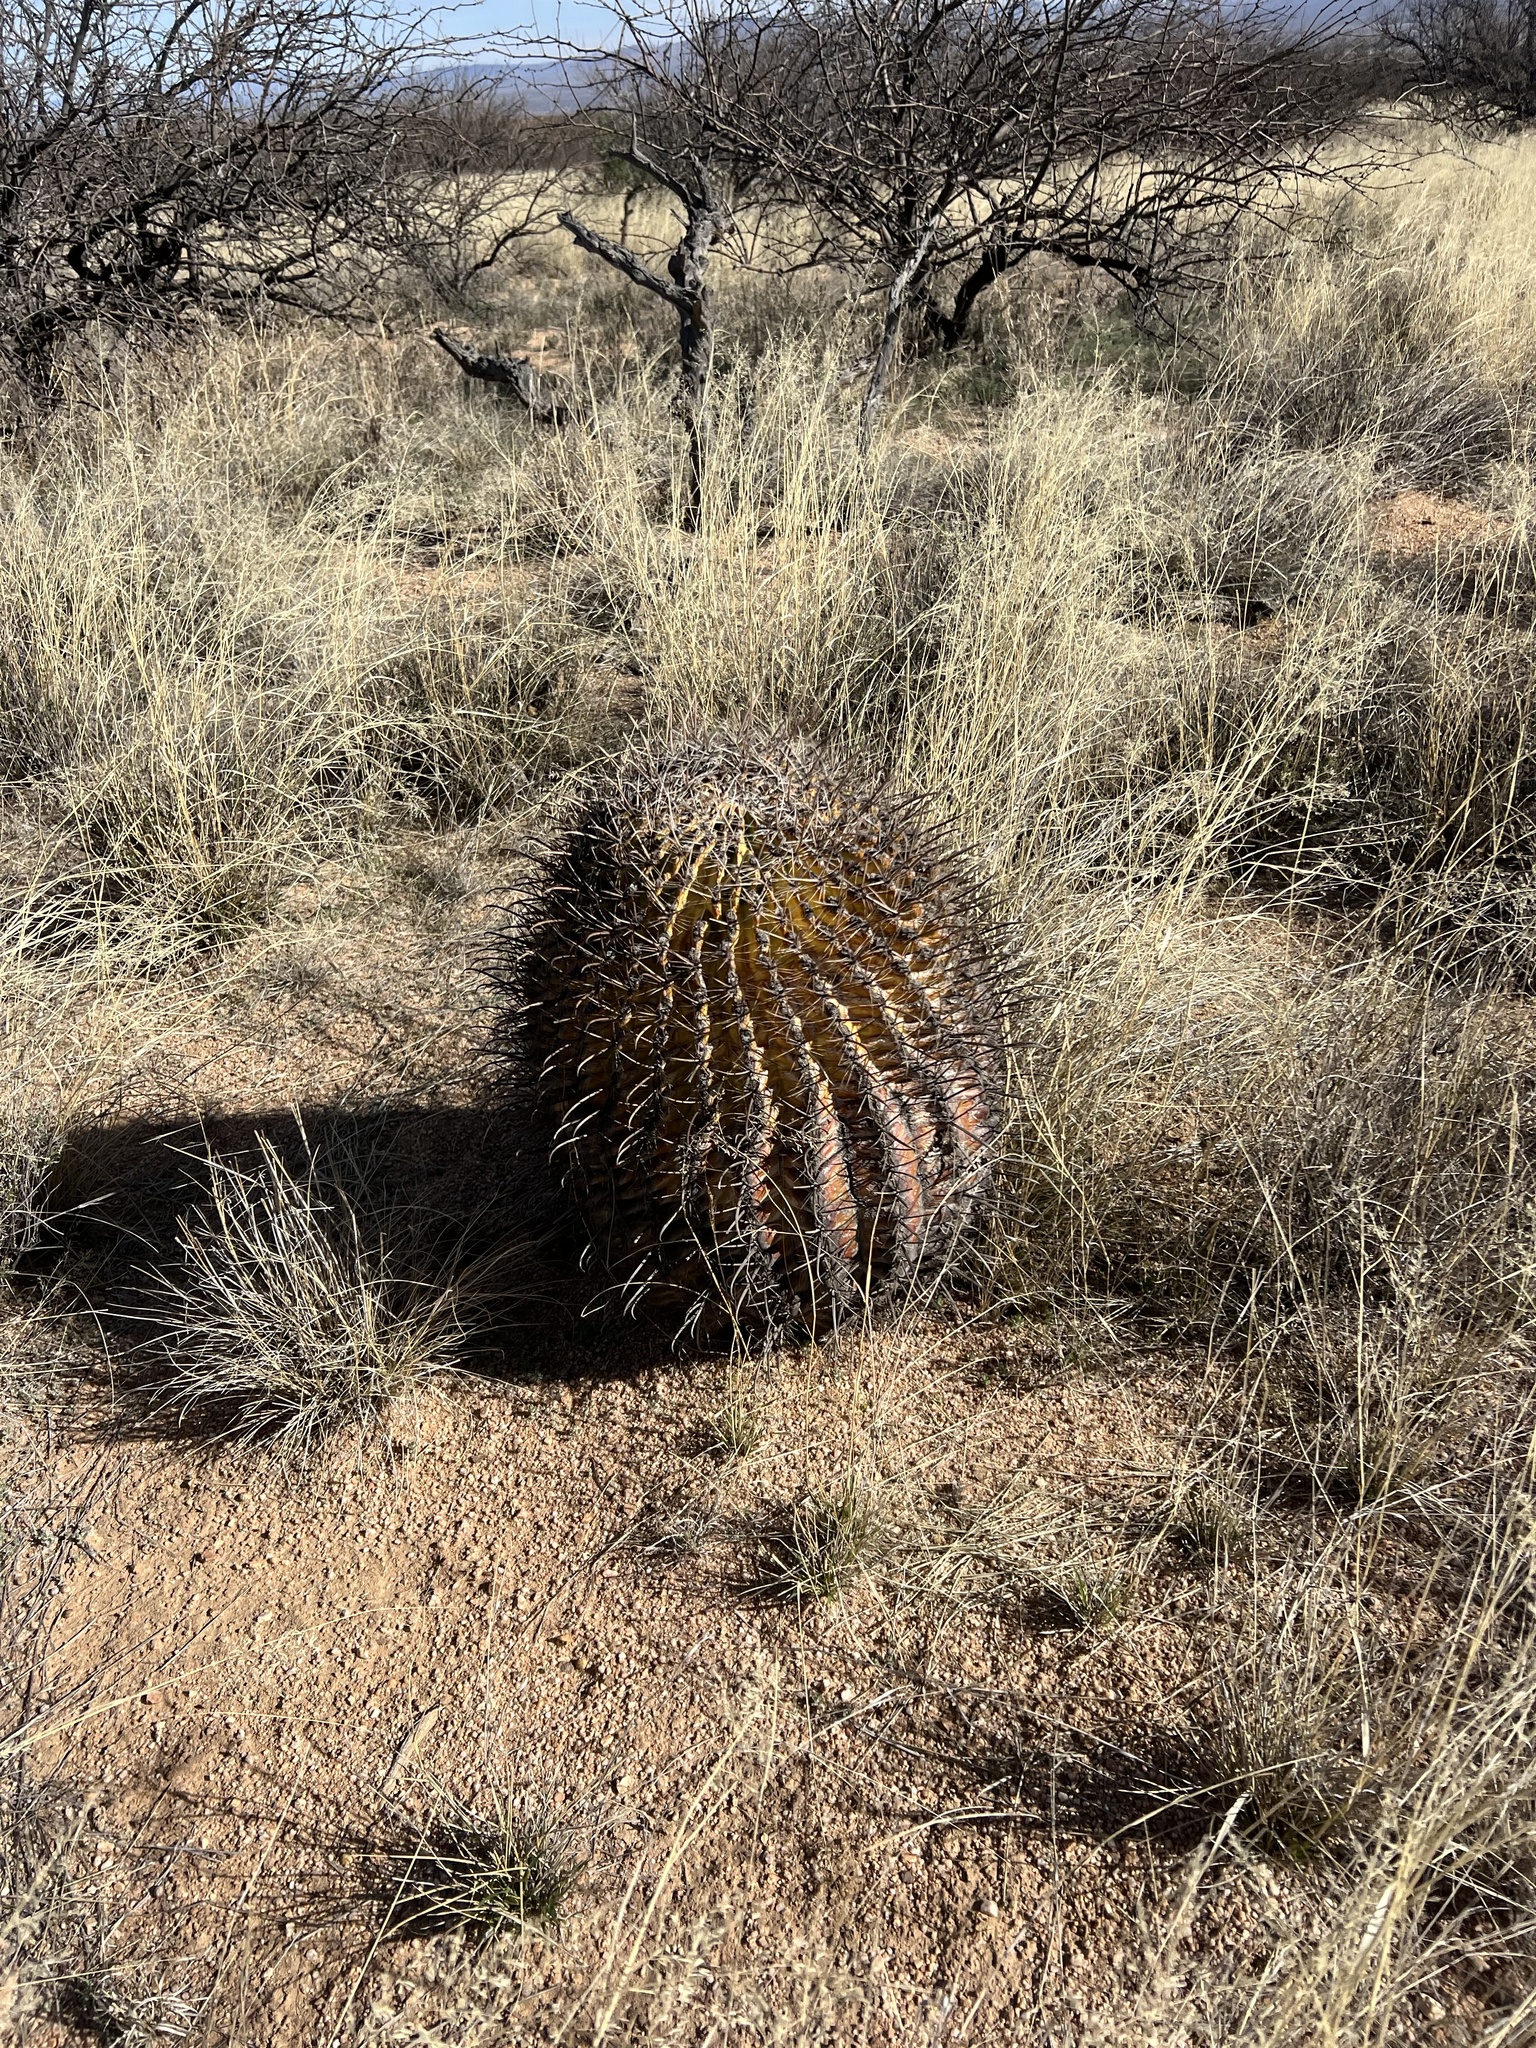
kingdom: Plantae
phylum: Tracheophyta
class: Magnoliopsida
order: Caryophyllales
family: Cactaceae
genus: Ferocactus
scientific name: Ferocactus wislizeni
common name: Candy barrel cactus
